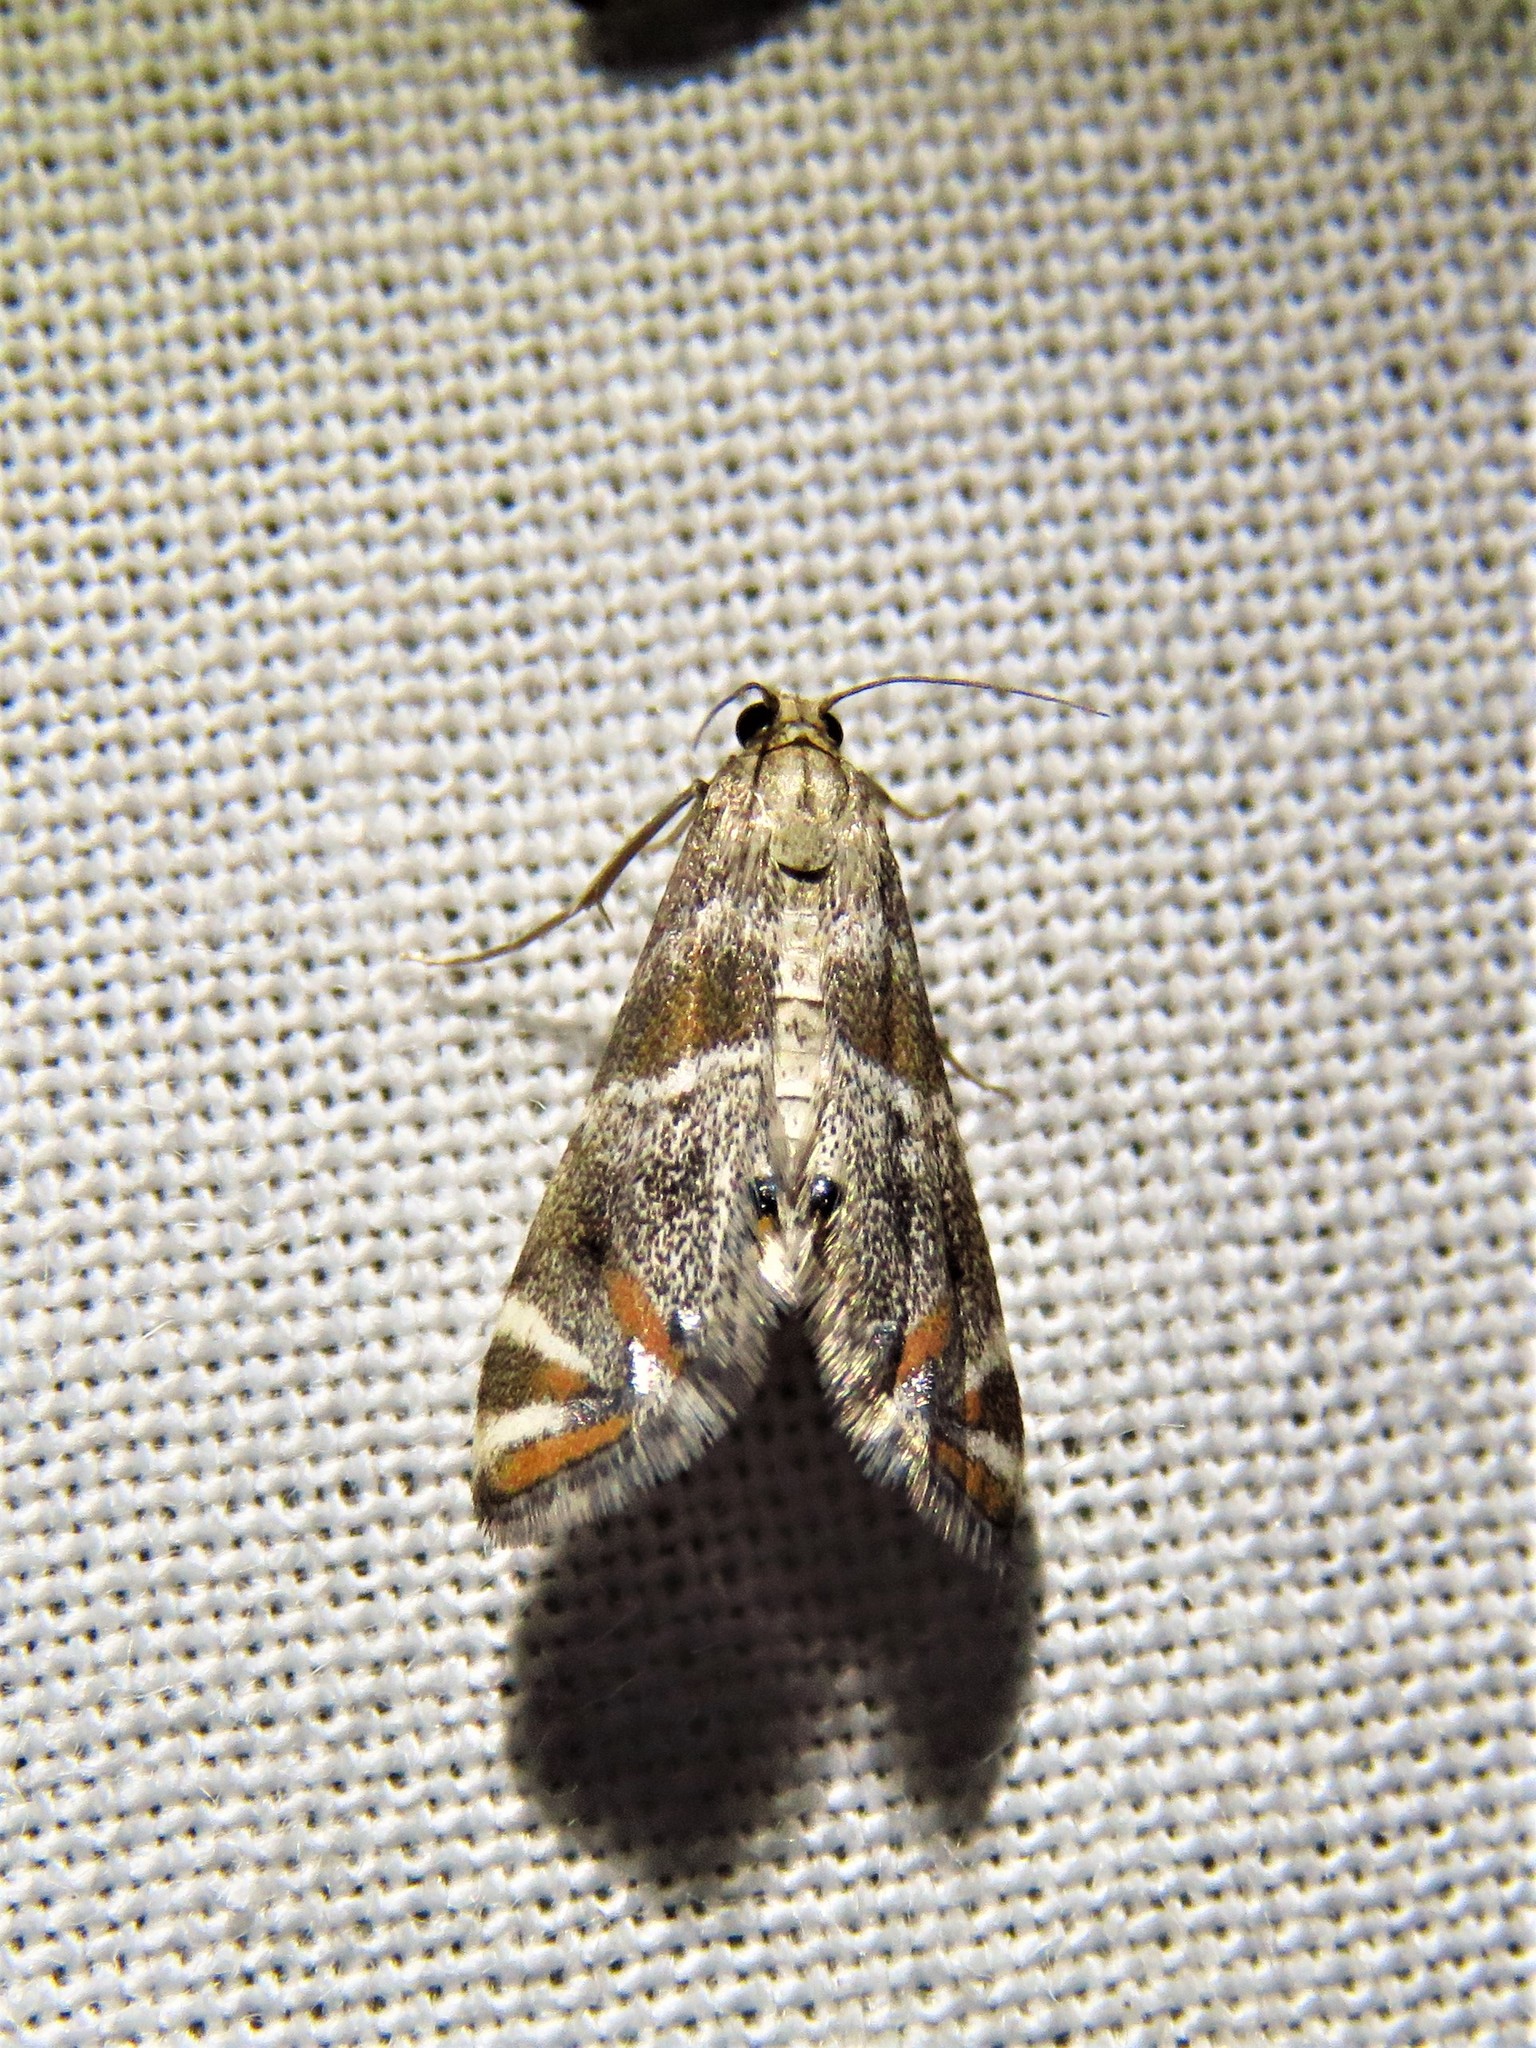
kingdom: Animalia
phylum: Arthropoda
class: Insecta
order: Lepidoptera
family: Crambidae
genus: Petrophila
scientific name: Petrophila jaliscalis
